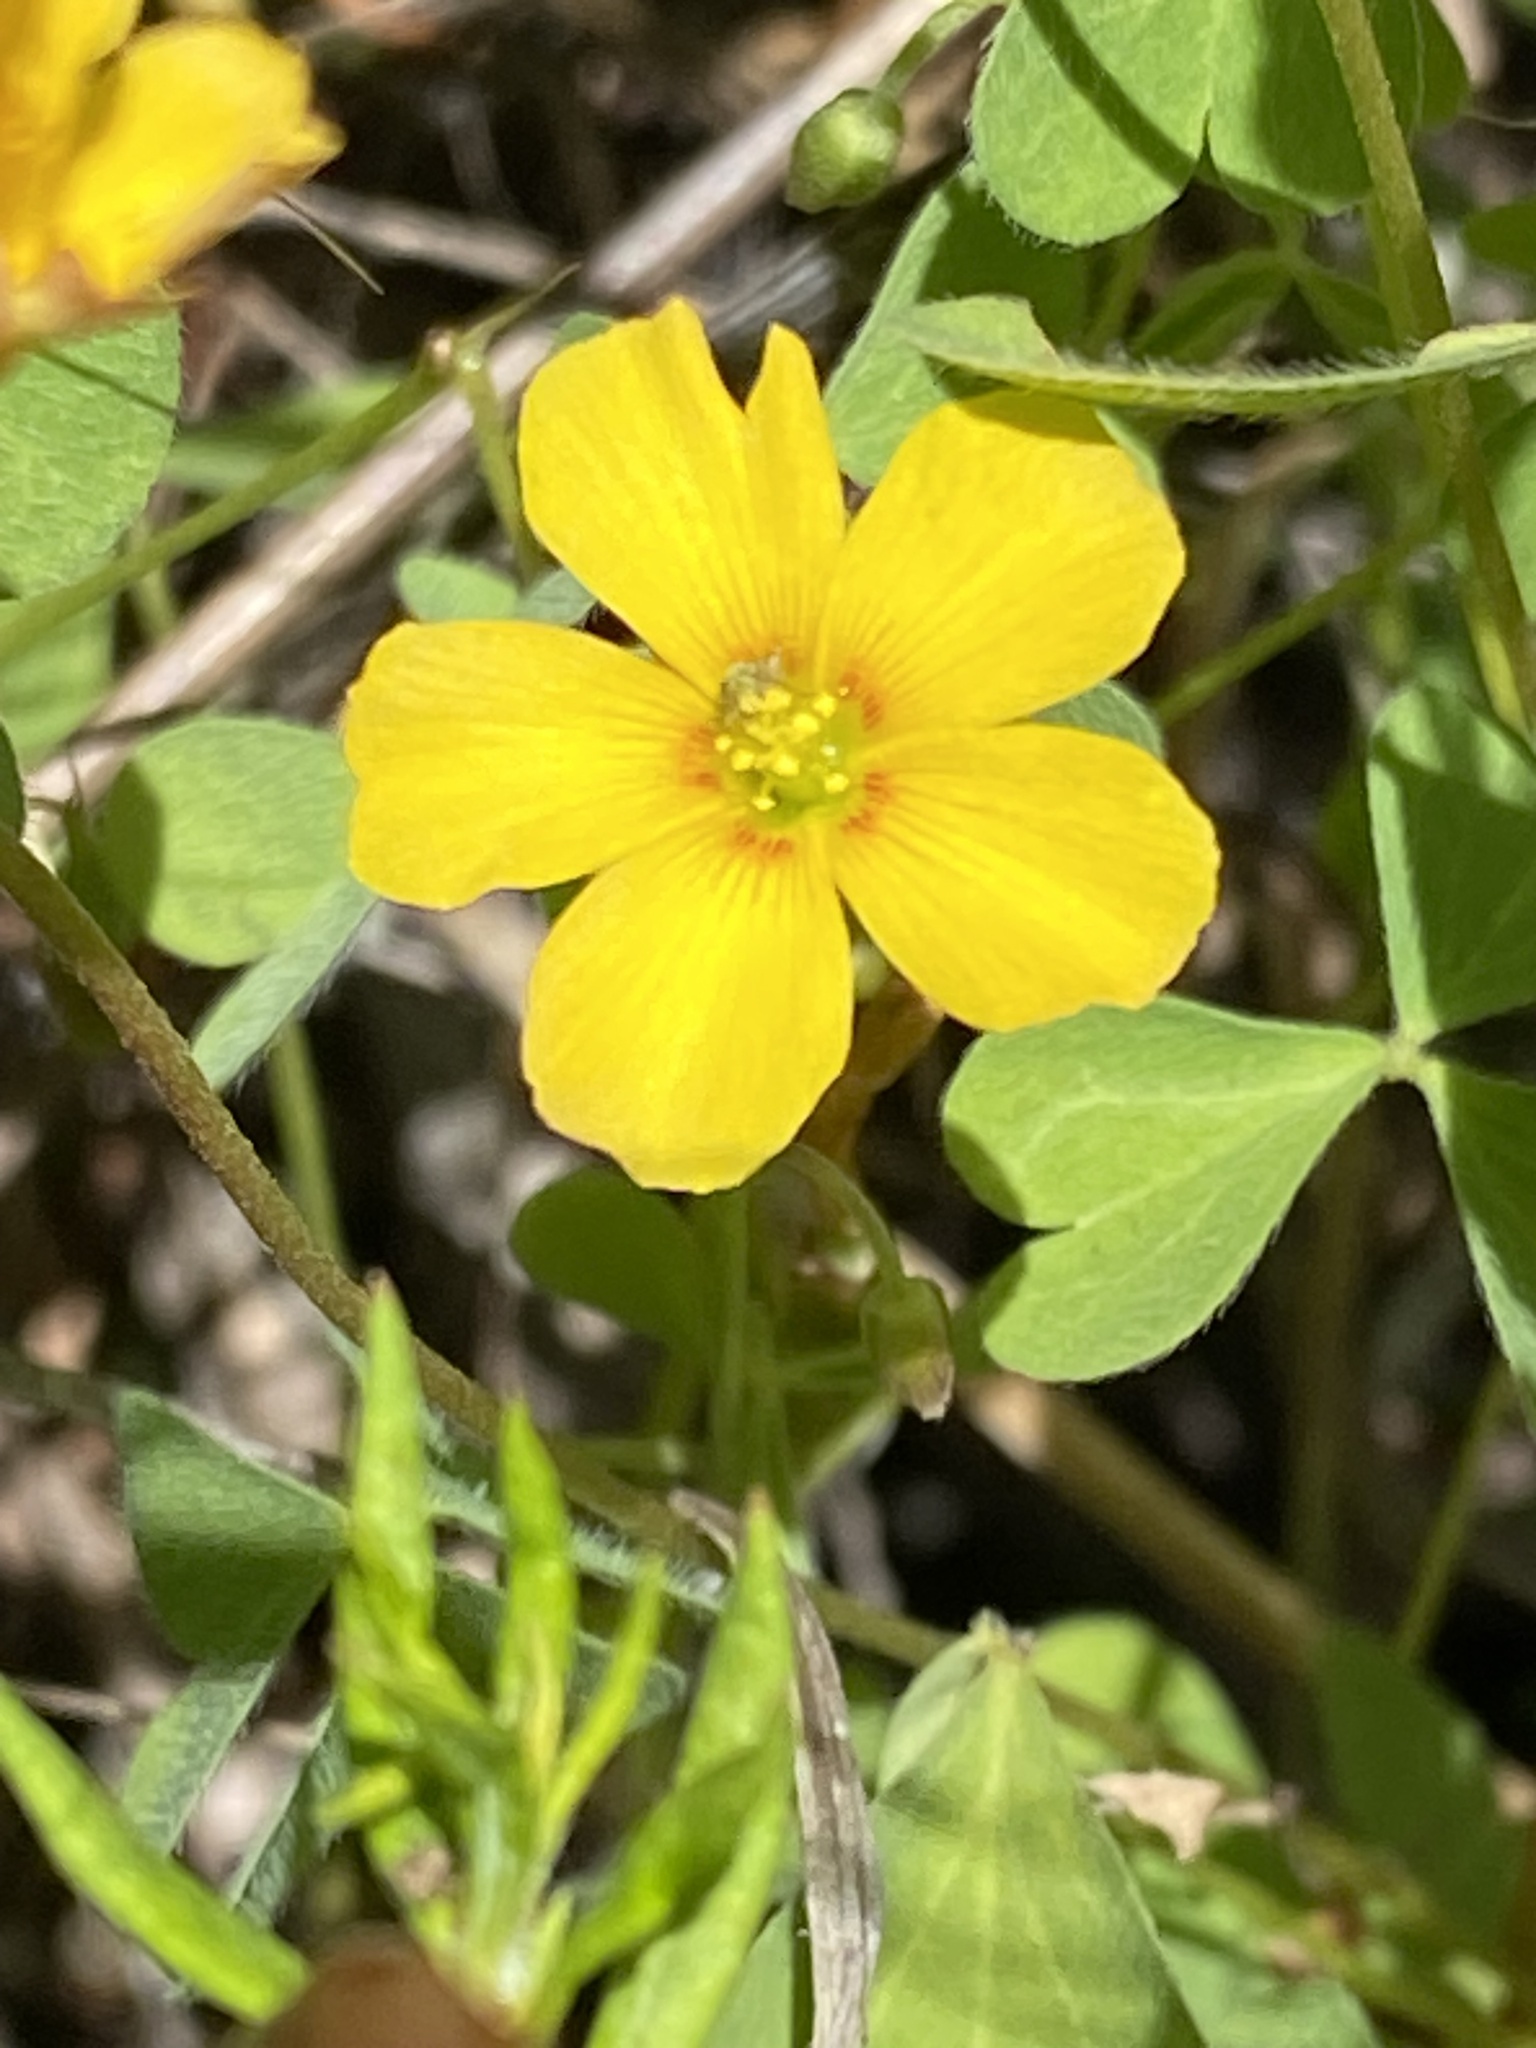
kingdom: Plantae
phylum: Tracheophyta
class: Magnoliopsida
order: Oxalidales
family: Oxalidaceae
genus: Oxalis
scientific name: Oxalis californica
